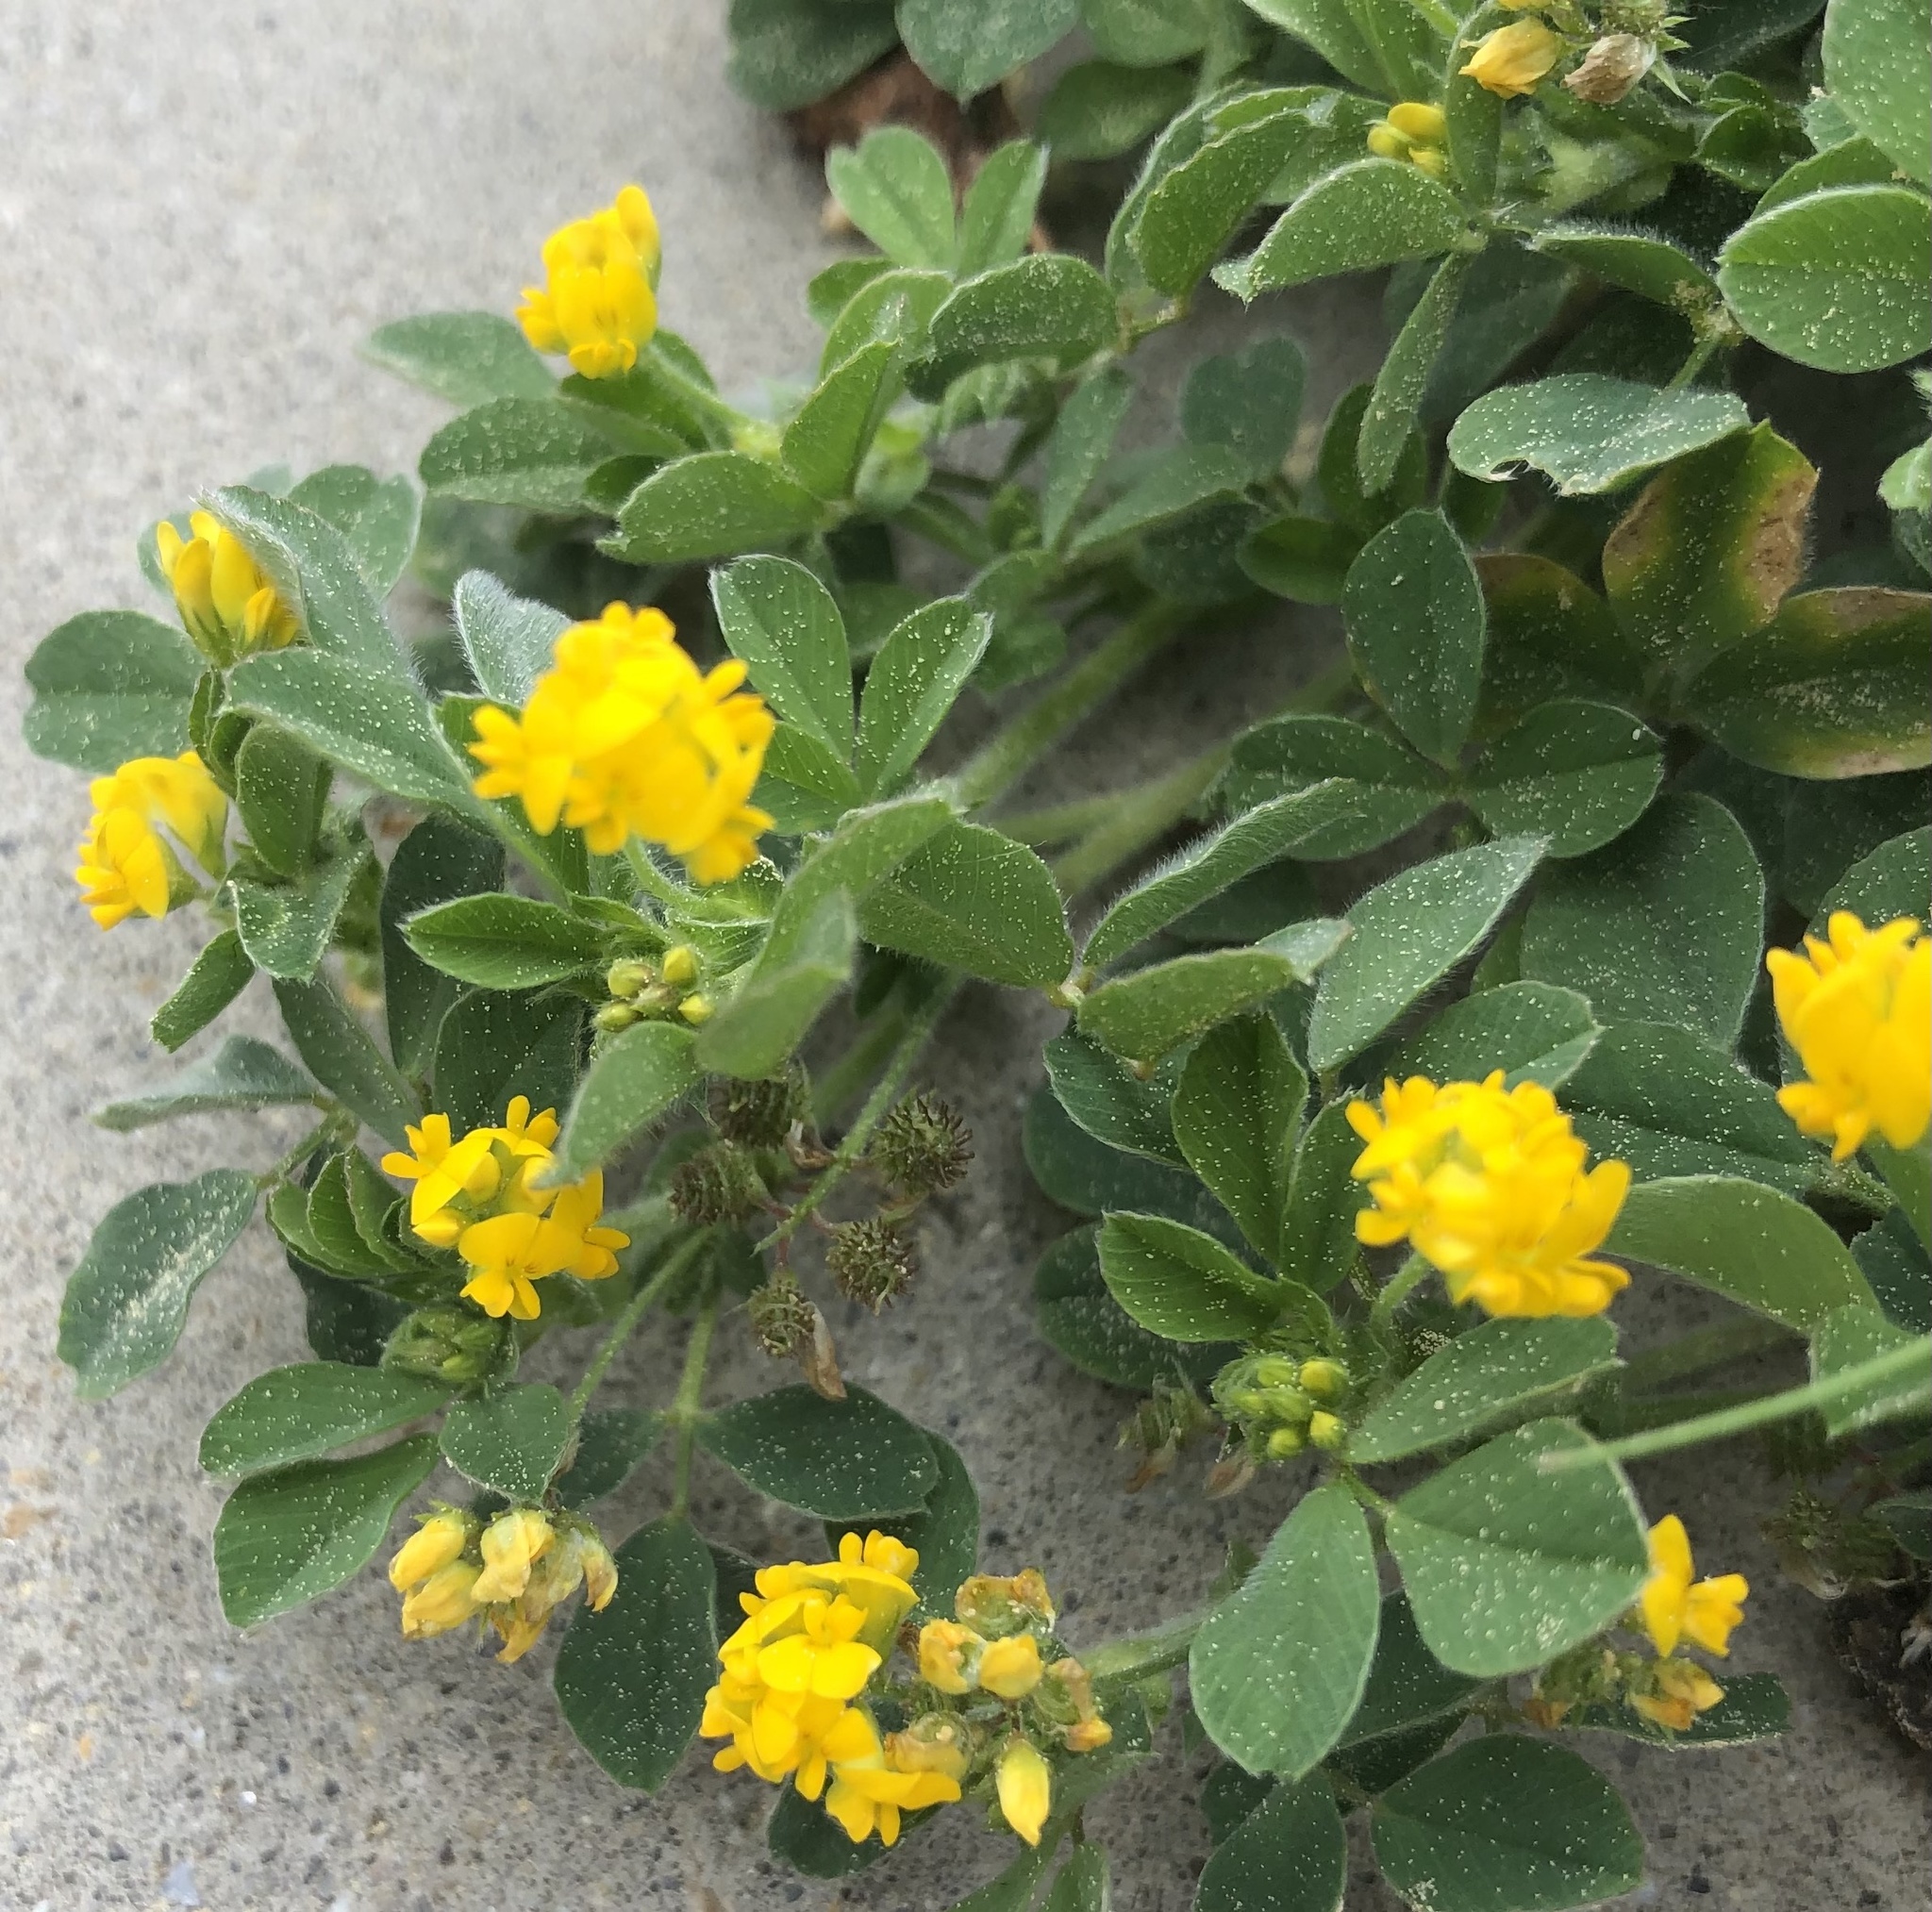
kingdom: Plantae
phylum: Tracheophyta
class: Magnoliopsida
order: Fabales
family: Fabaceae
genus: Medicago
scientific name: Medicago minima
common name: Little bur-clover
